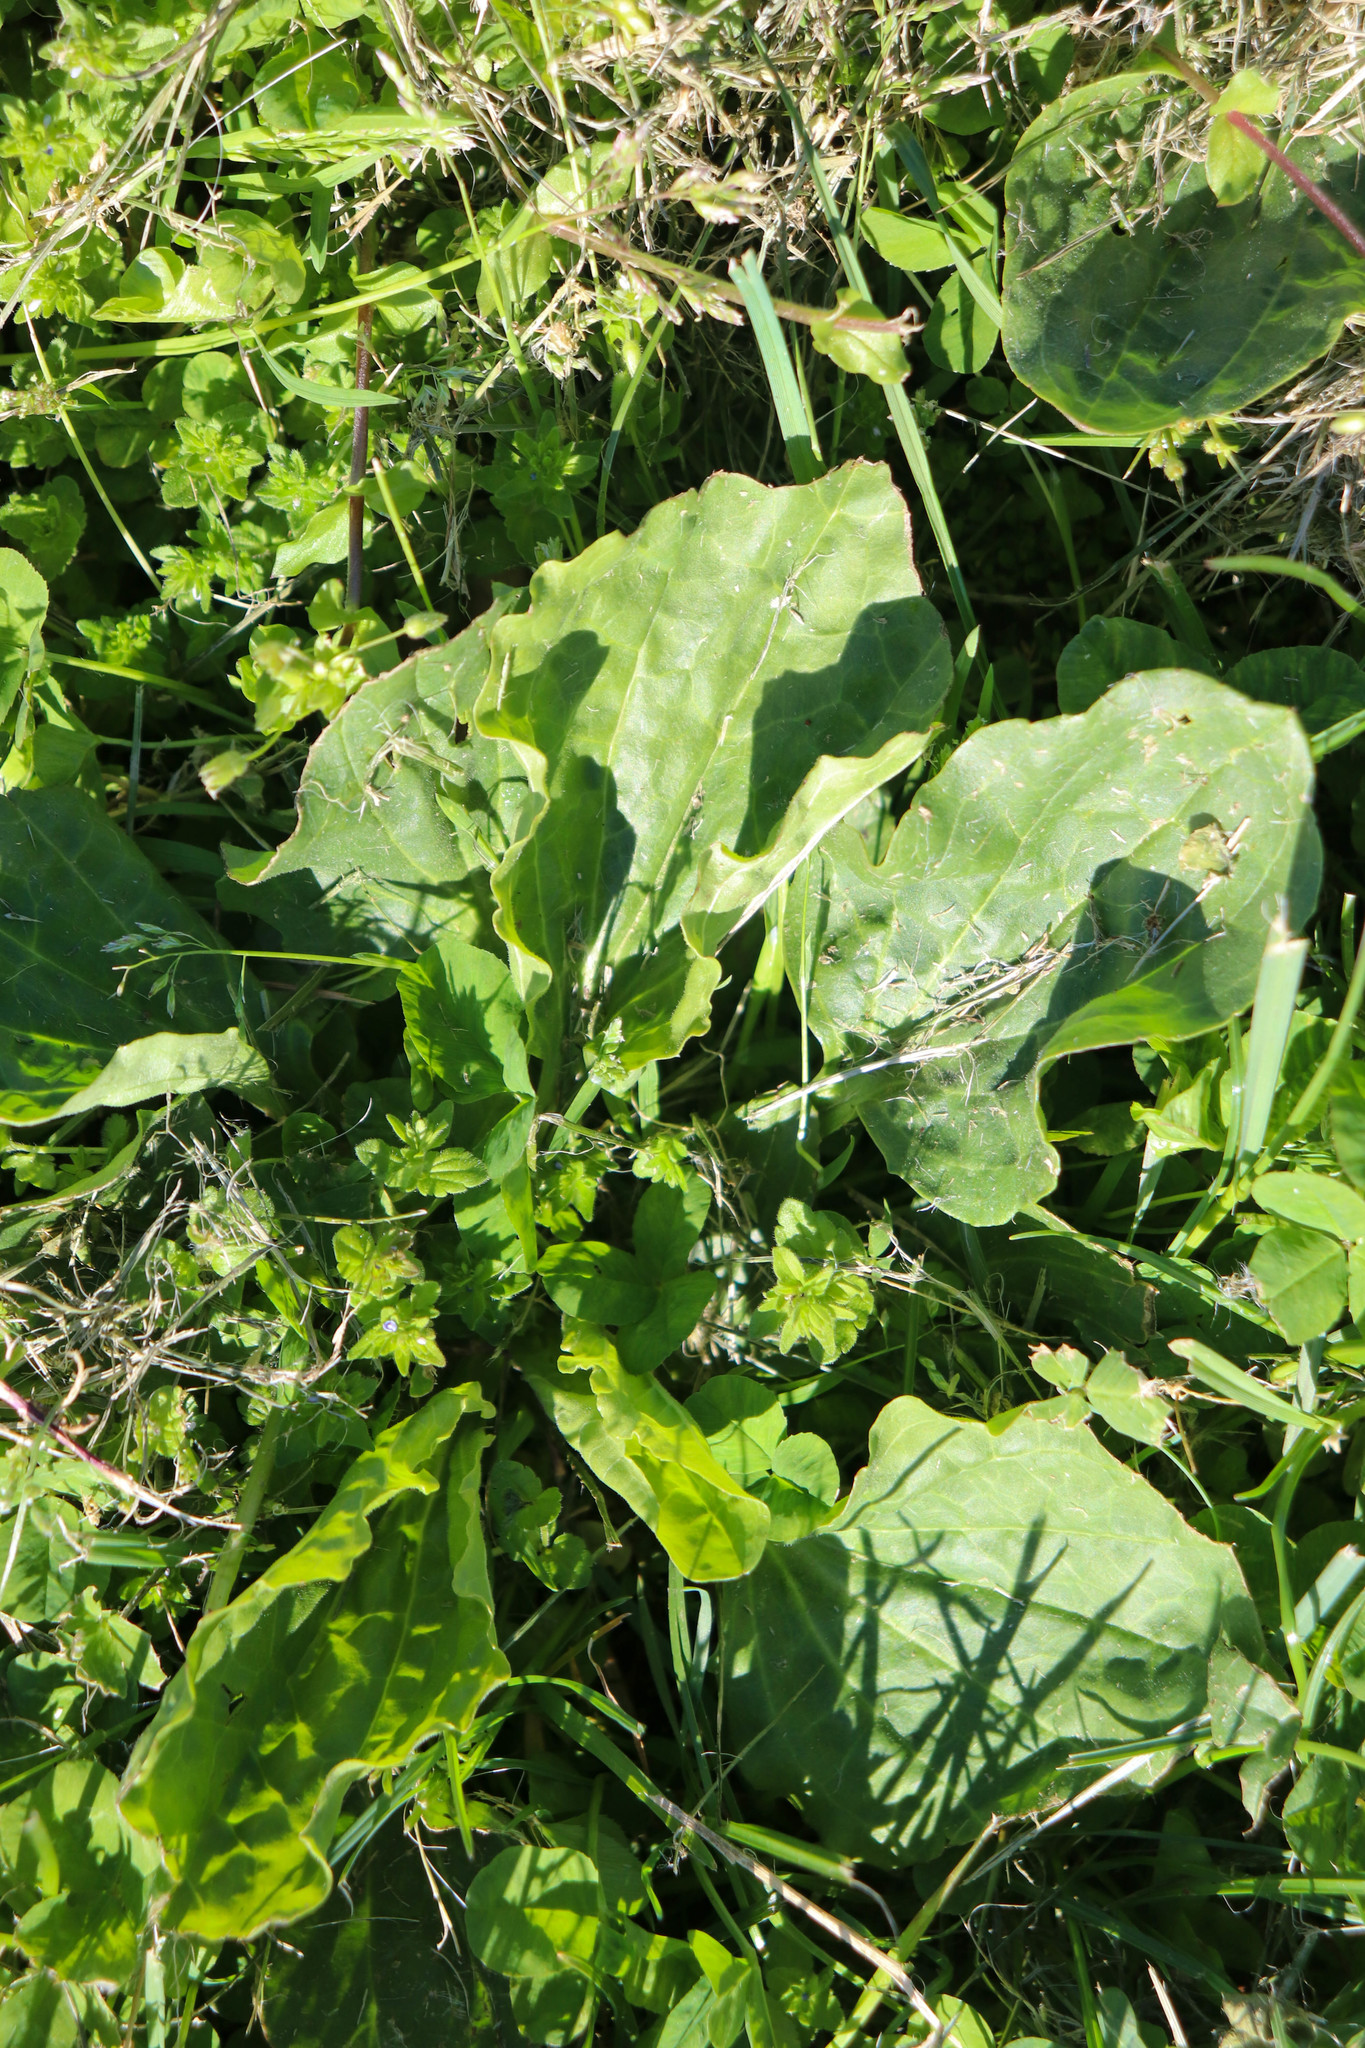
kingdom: Plantae
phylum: Tracheophyta
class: Magnoliopsida
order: Lamiales
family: Plantaginaceae
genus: Plantago
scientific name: Plantago major
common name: Common plantain
